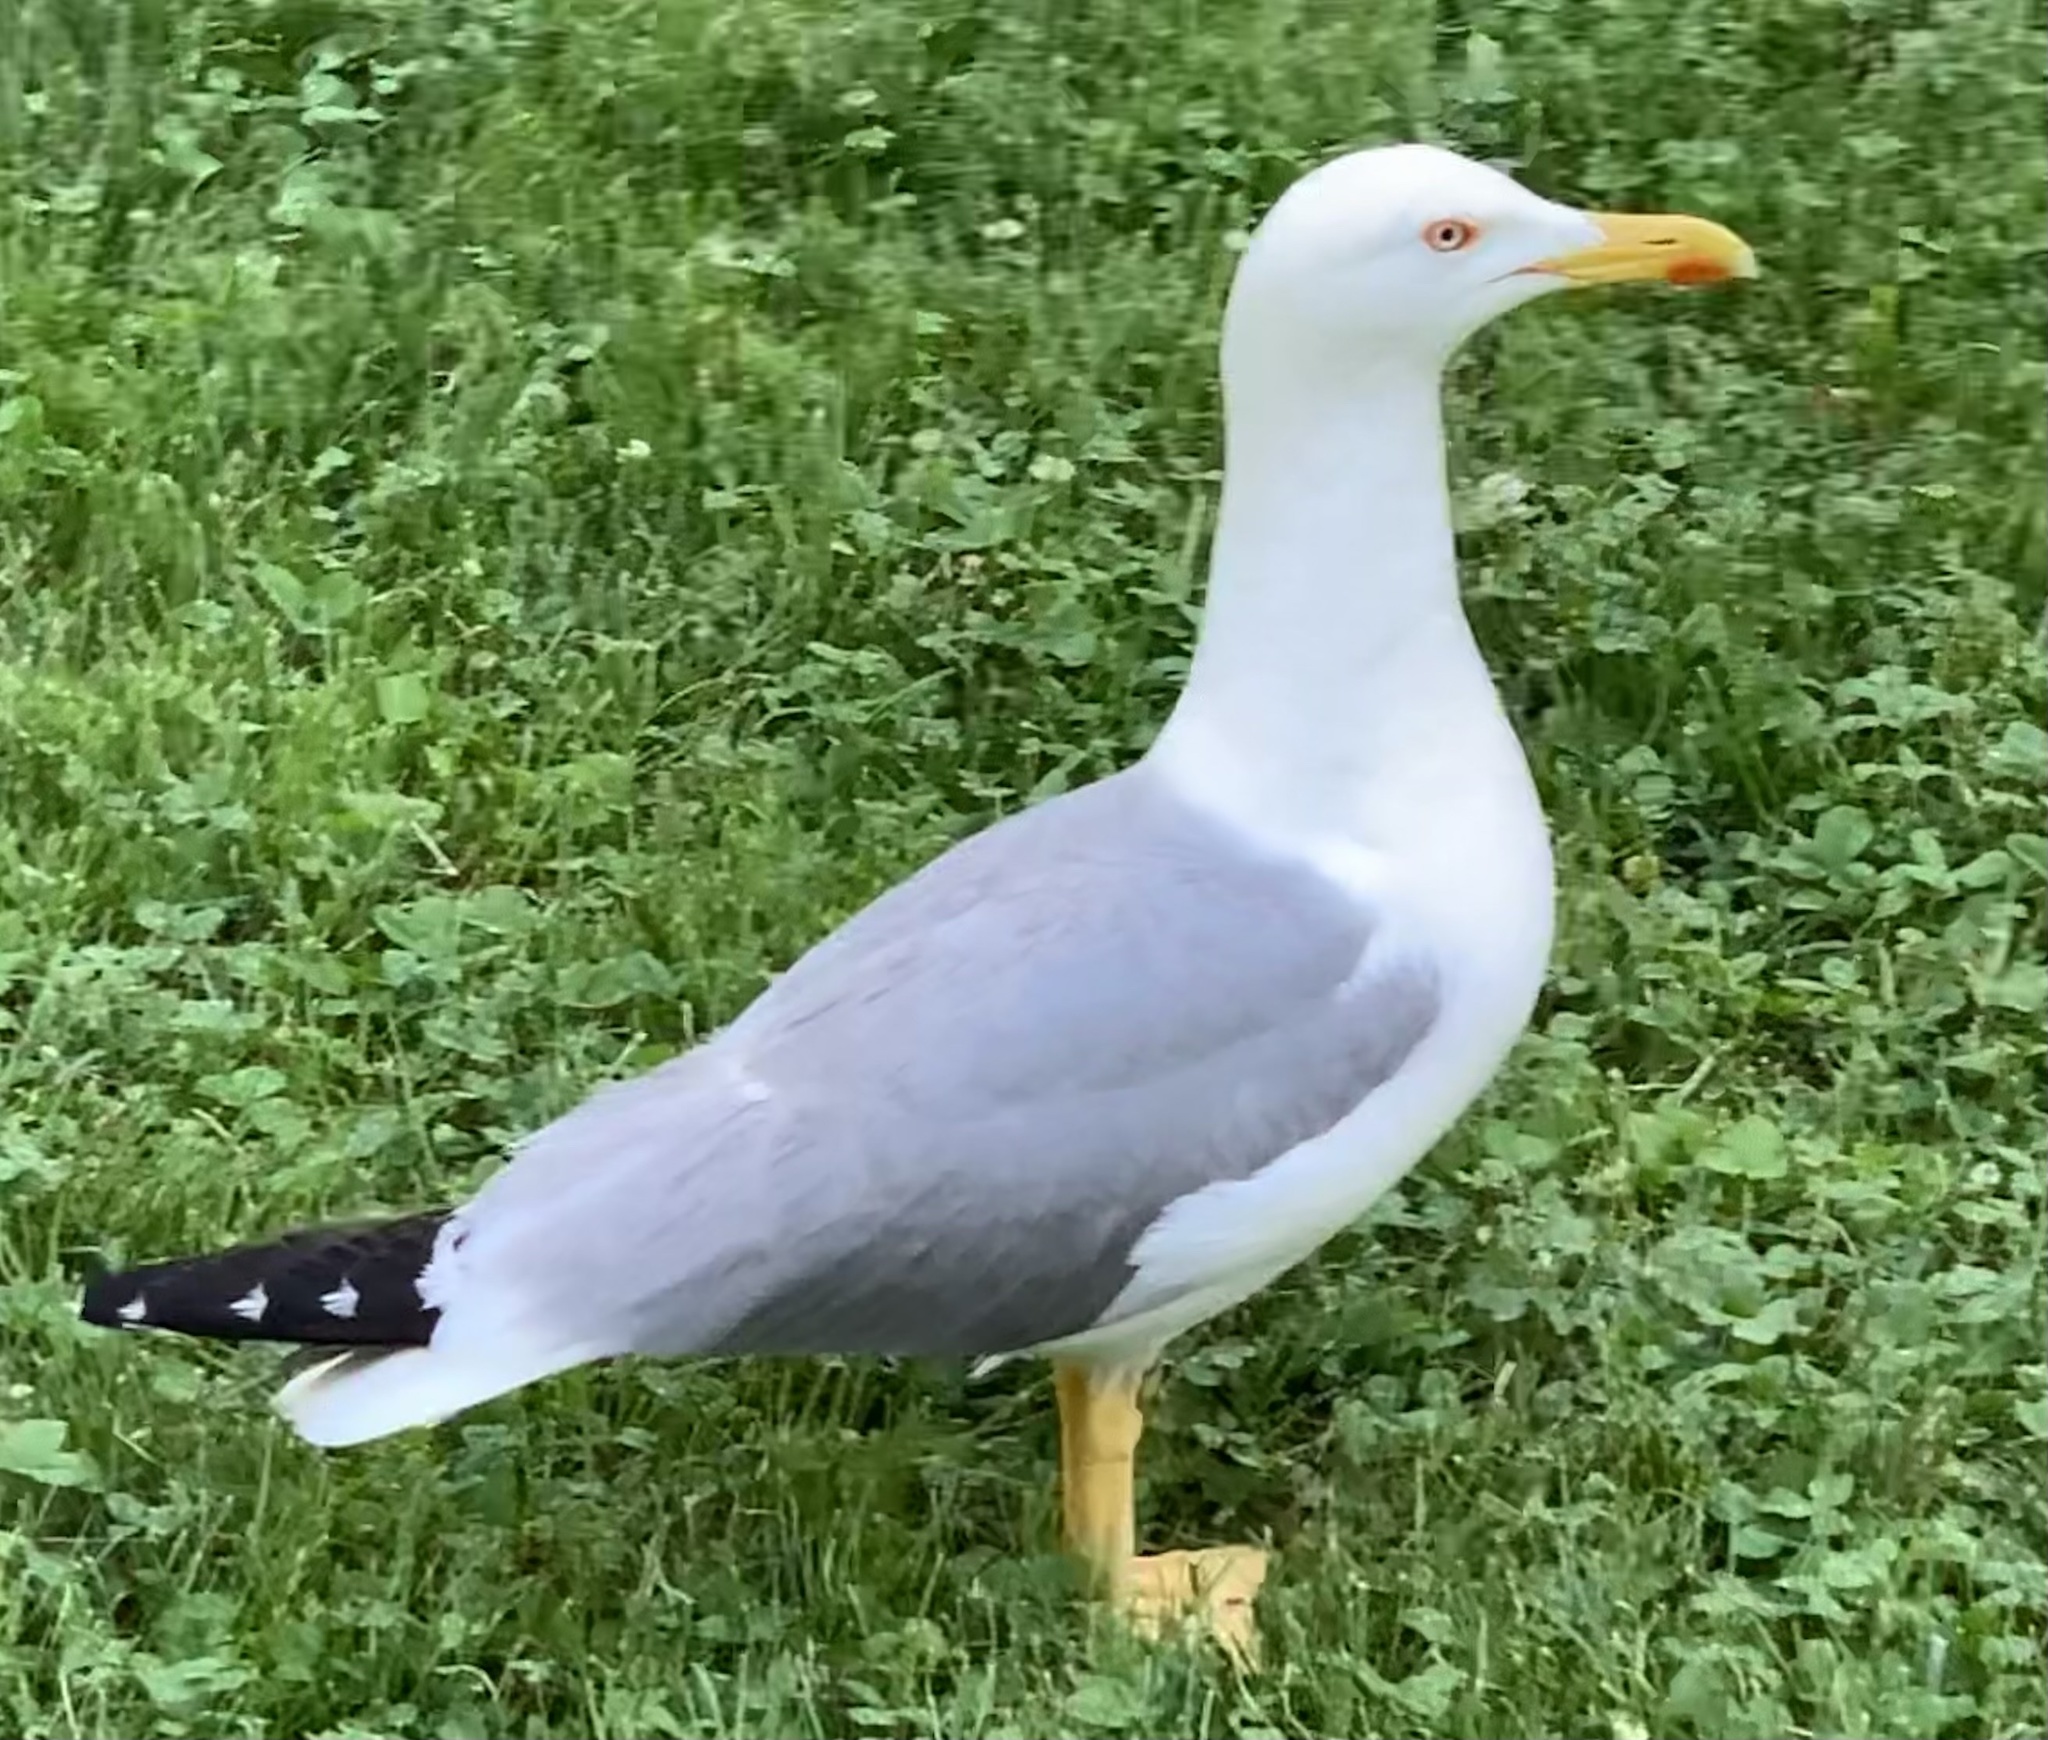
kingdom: Animalia
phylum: Chordata
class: Aves
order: Charadriiformes
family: Laridae
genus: Larus
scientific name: Larus michahellis
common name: Yellow-legged gull
